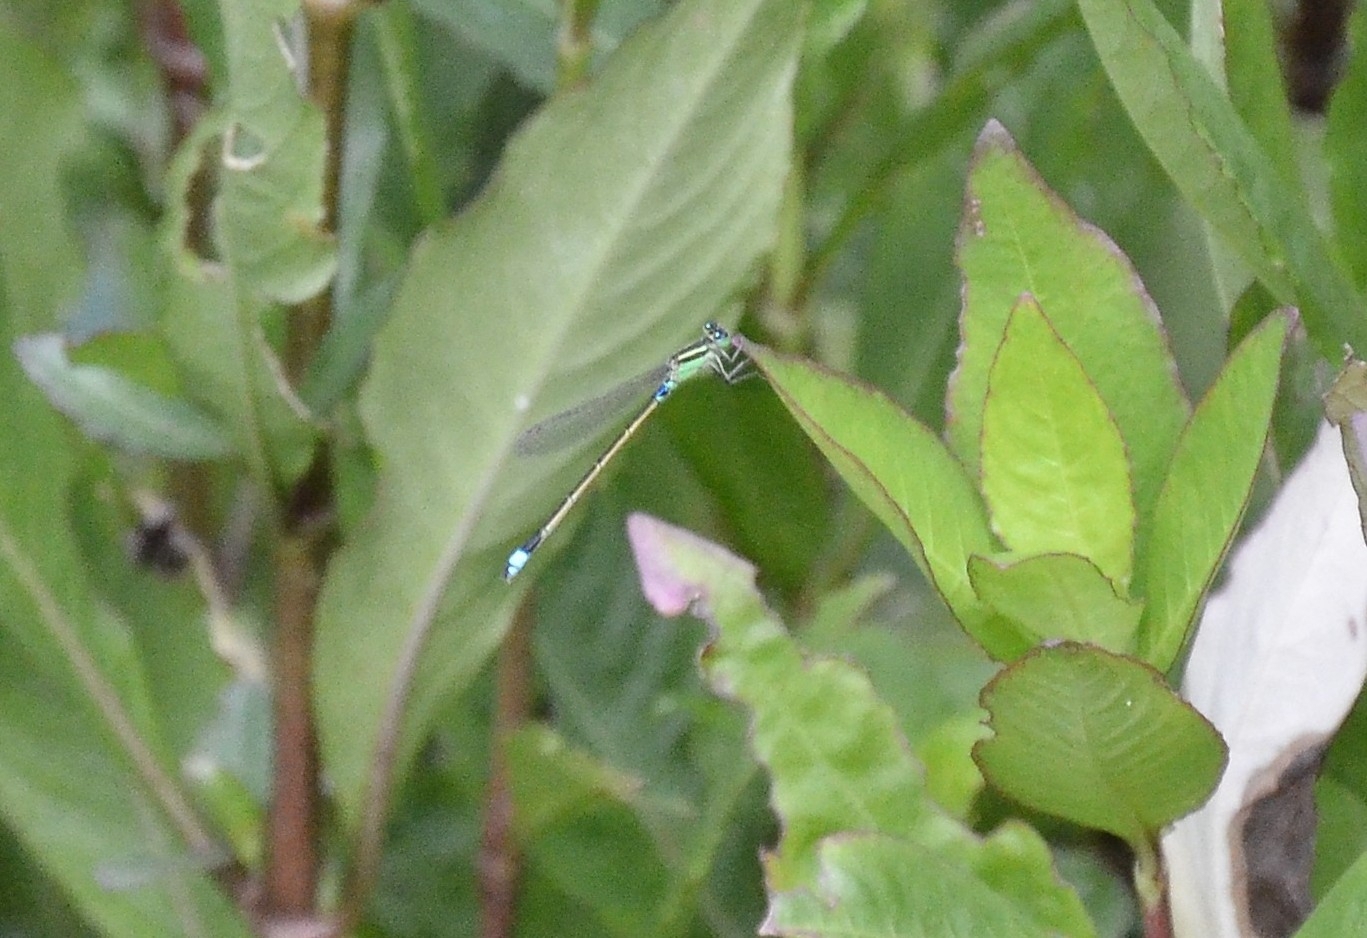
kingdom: Animalia
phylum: Arthropoda
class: Insecta
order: Odonata
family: Coenagrionidae
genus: Ischnura
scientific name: Ischnura senegalensis
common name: Tropical bluetail
